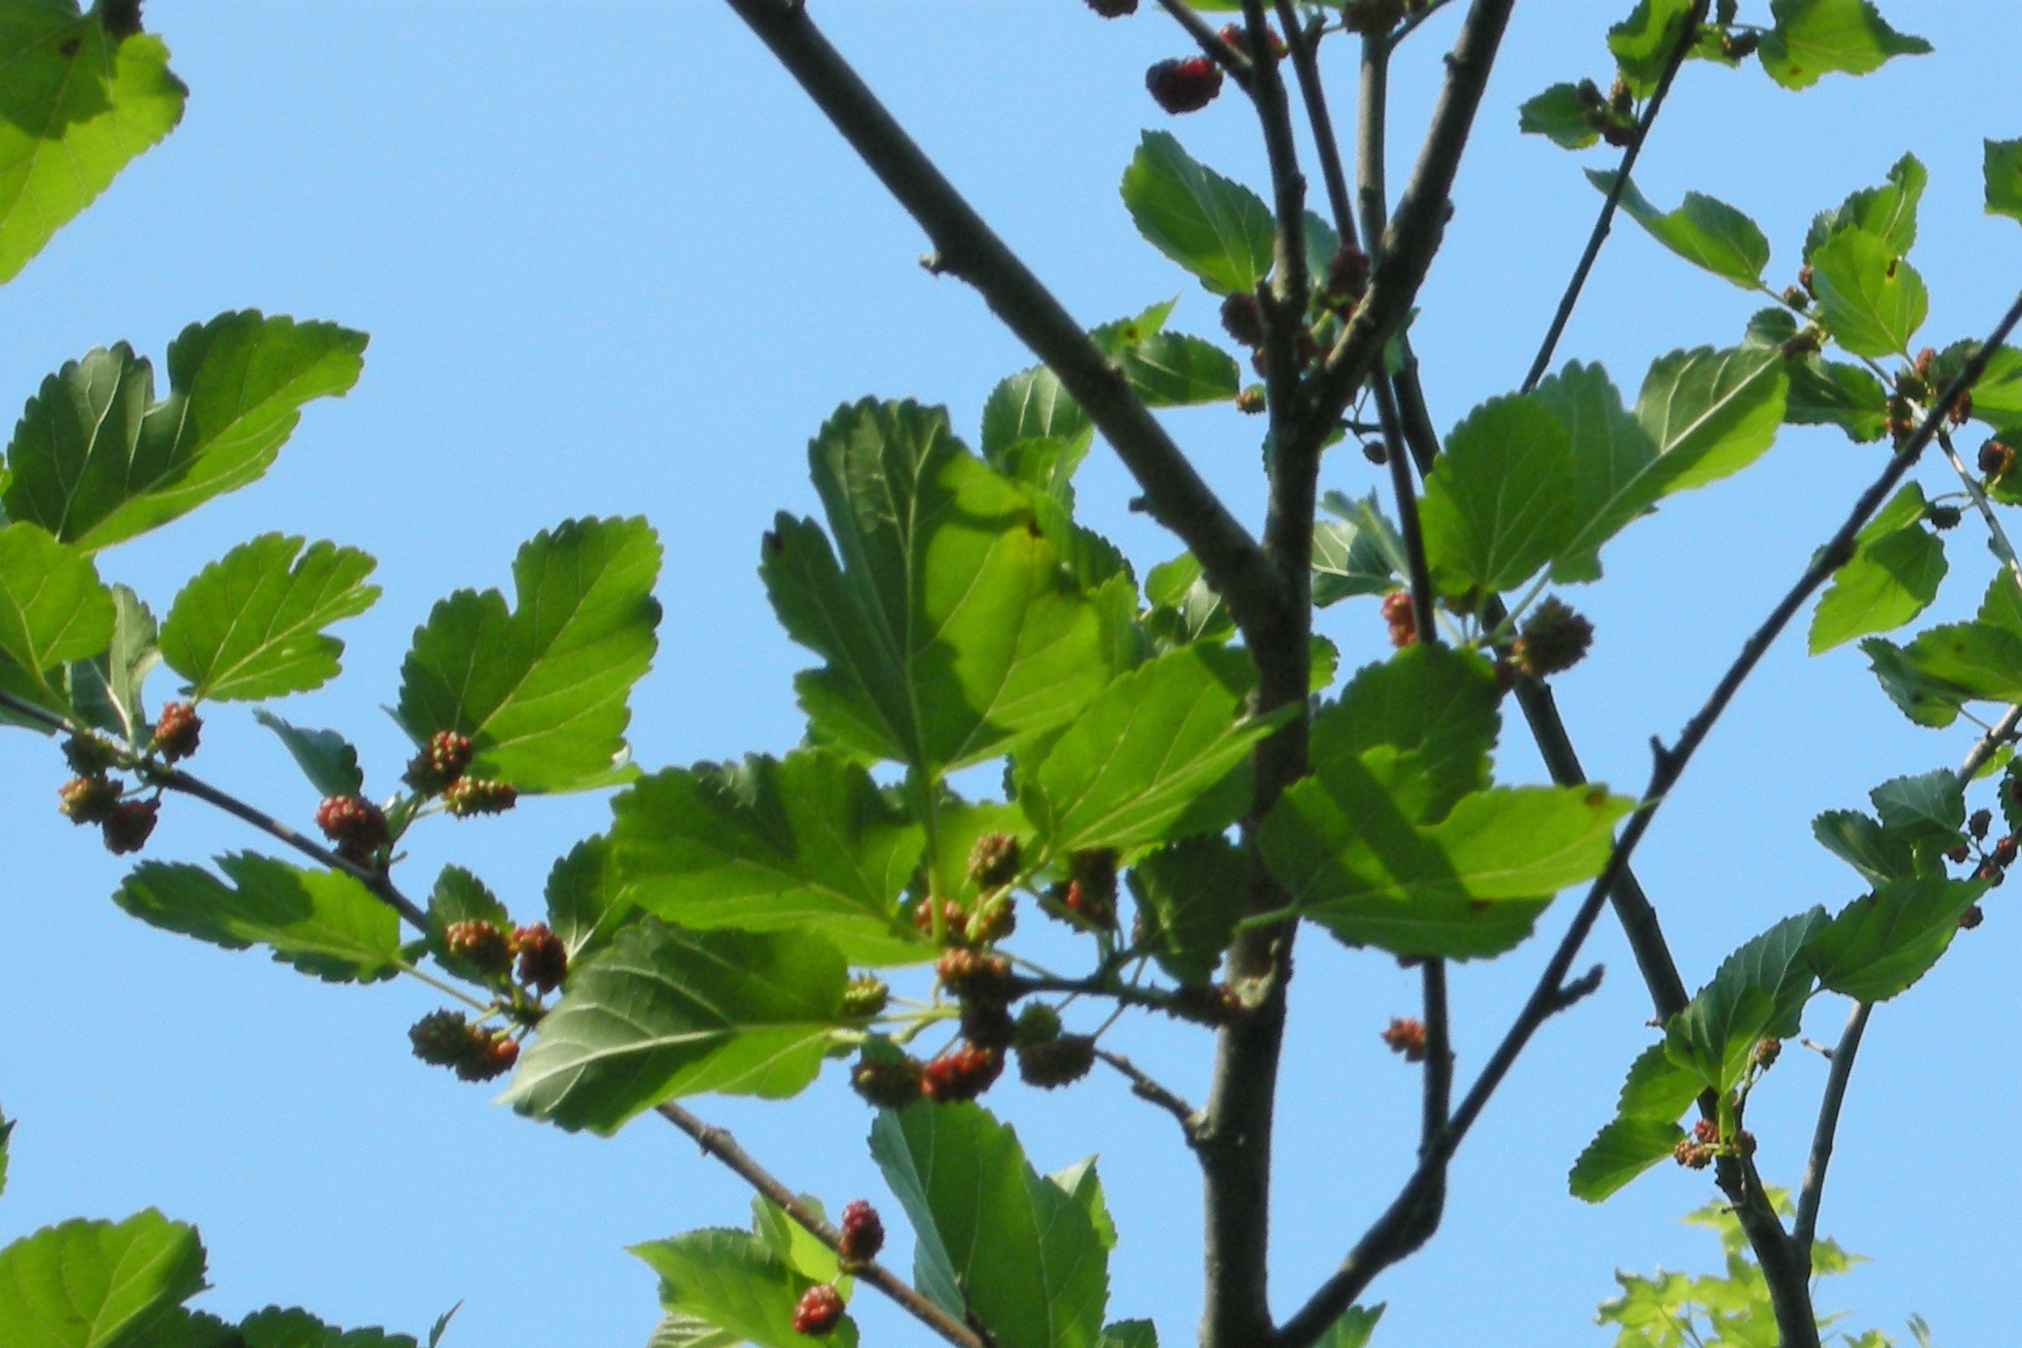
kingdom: Plantae
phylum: Tracheophyta
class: Magnoliopsida
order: Rosales
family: Moraceae
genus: Morus
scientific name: Morus alba
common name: White mulberry
